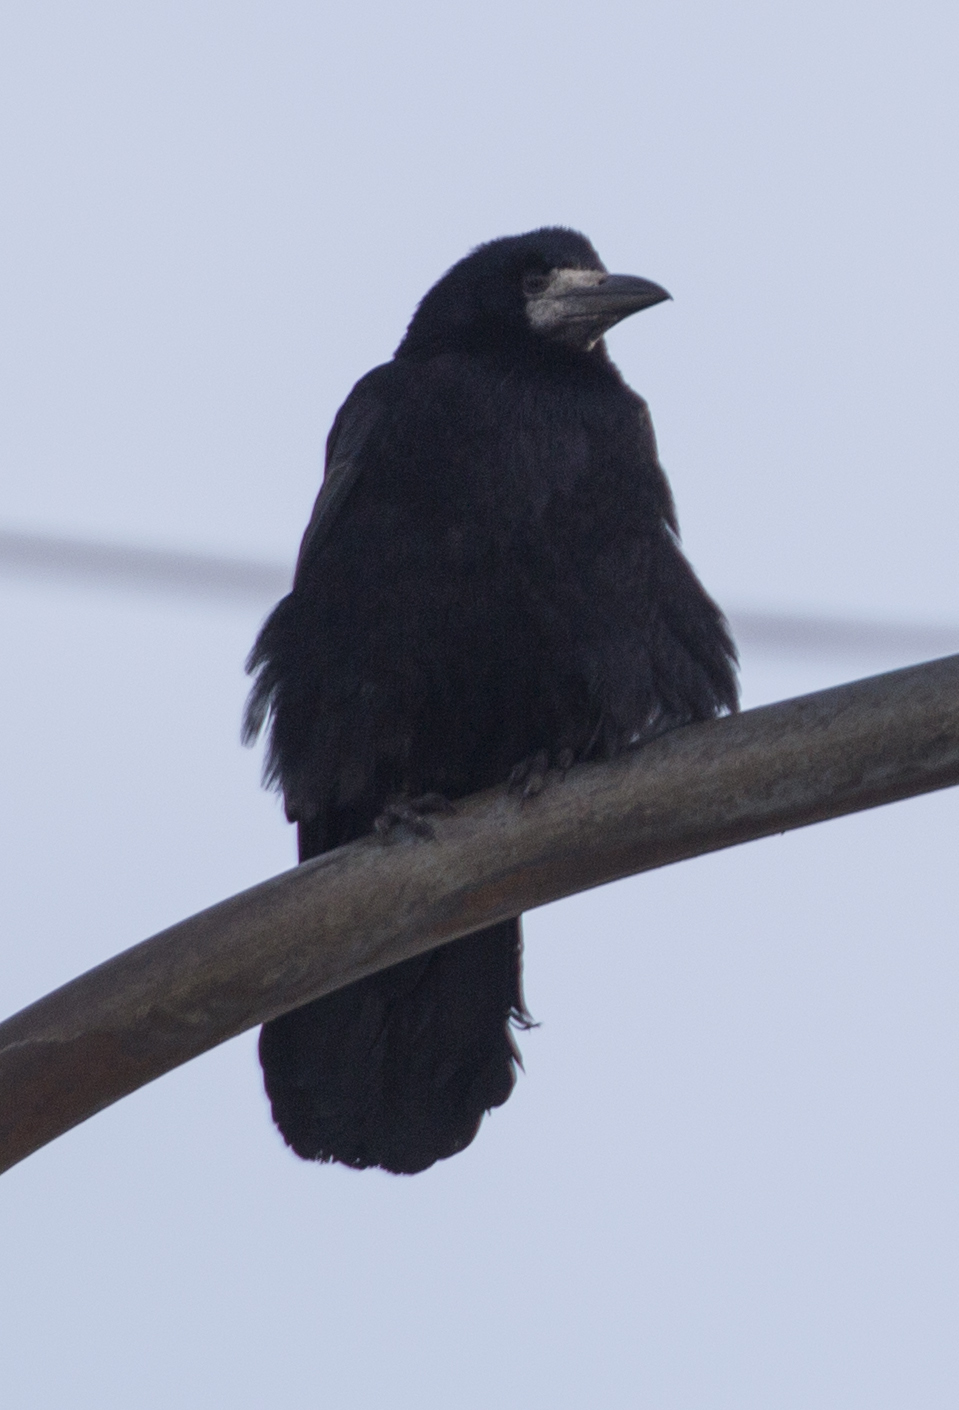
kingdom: Animalia
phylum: Chordata
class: Aves
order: Passeriformes
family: Corvidae
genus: Corvus
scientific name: Corvus frugilegus
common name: Rook
